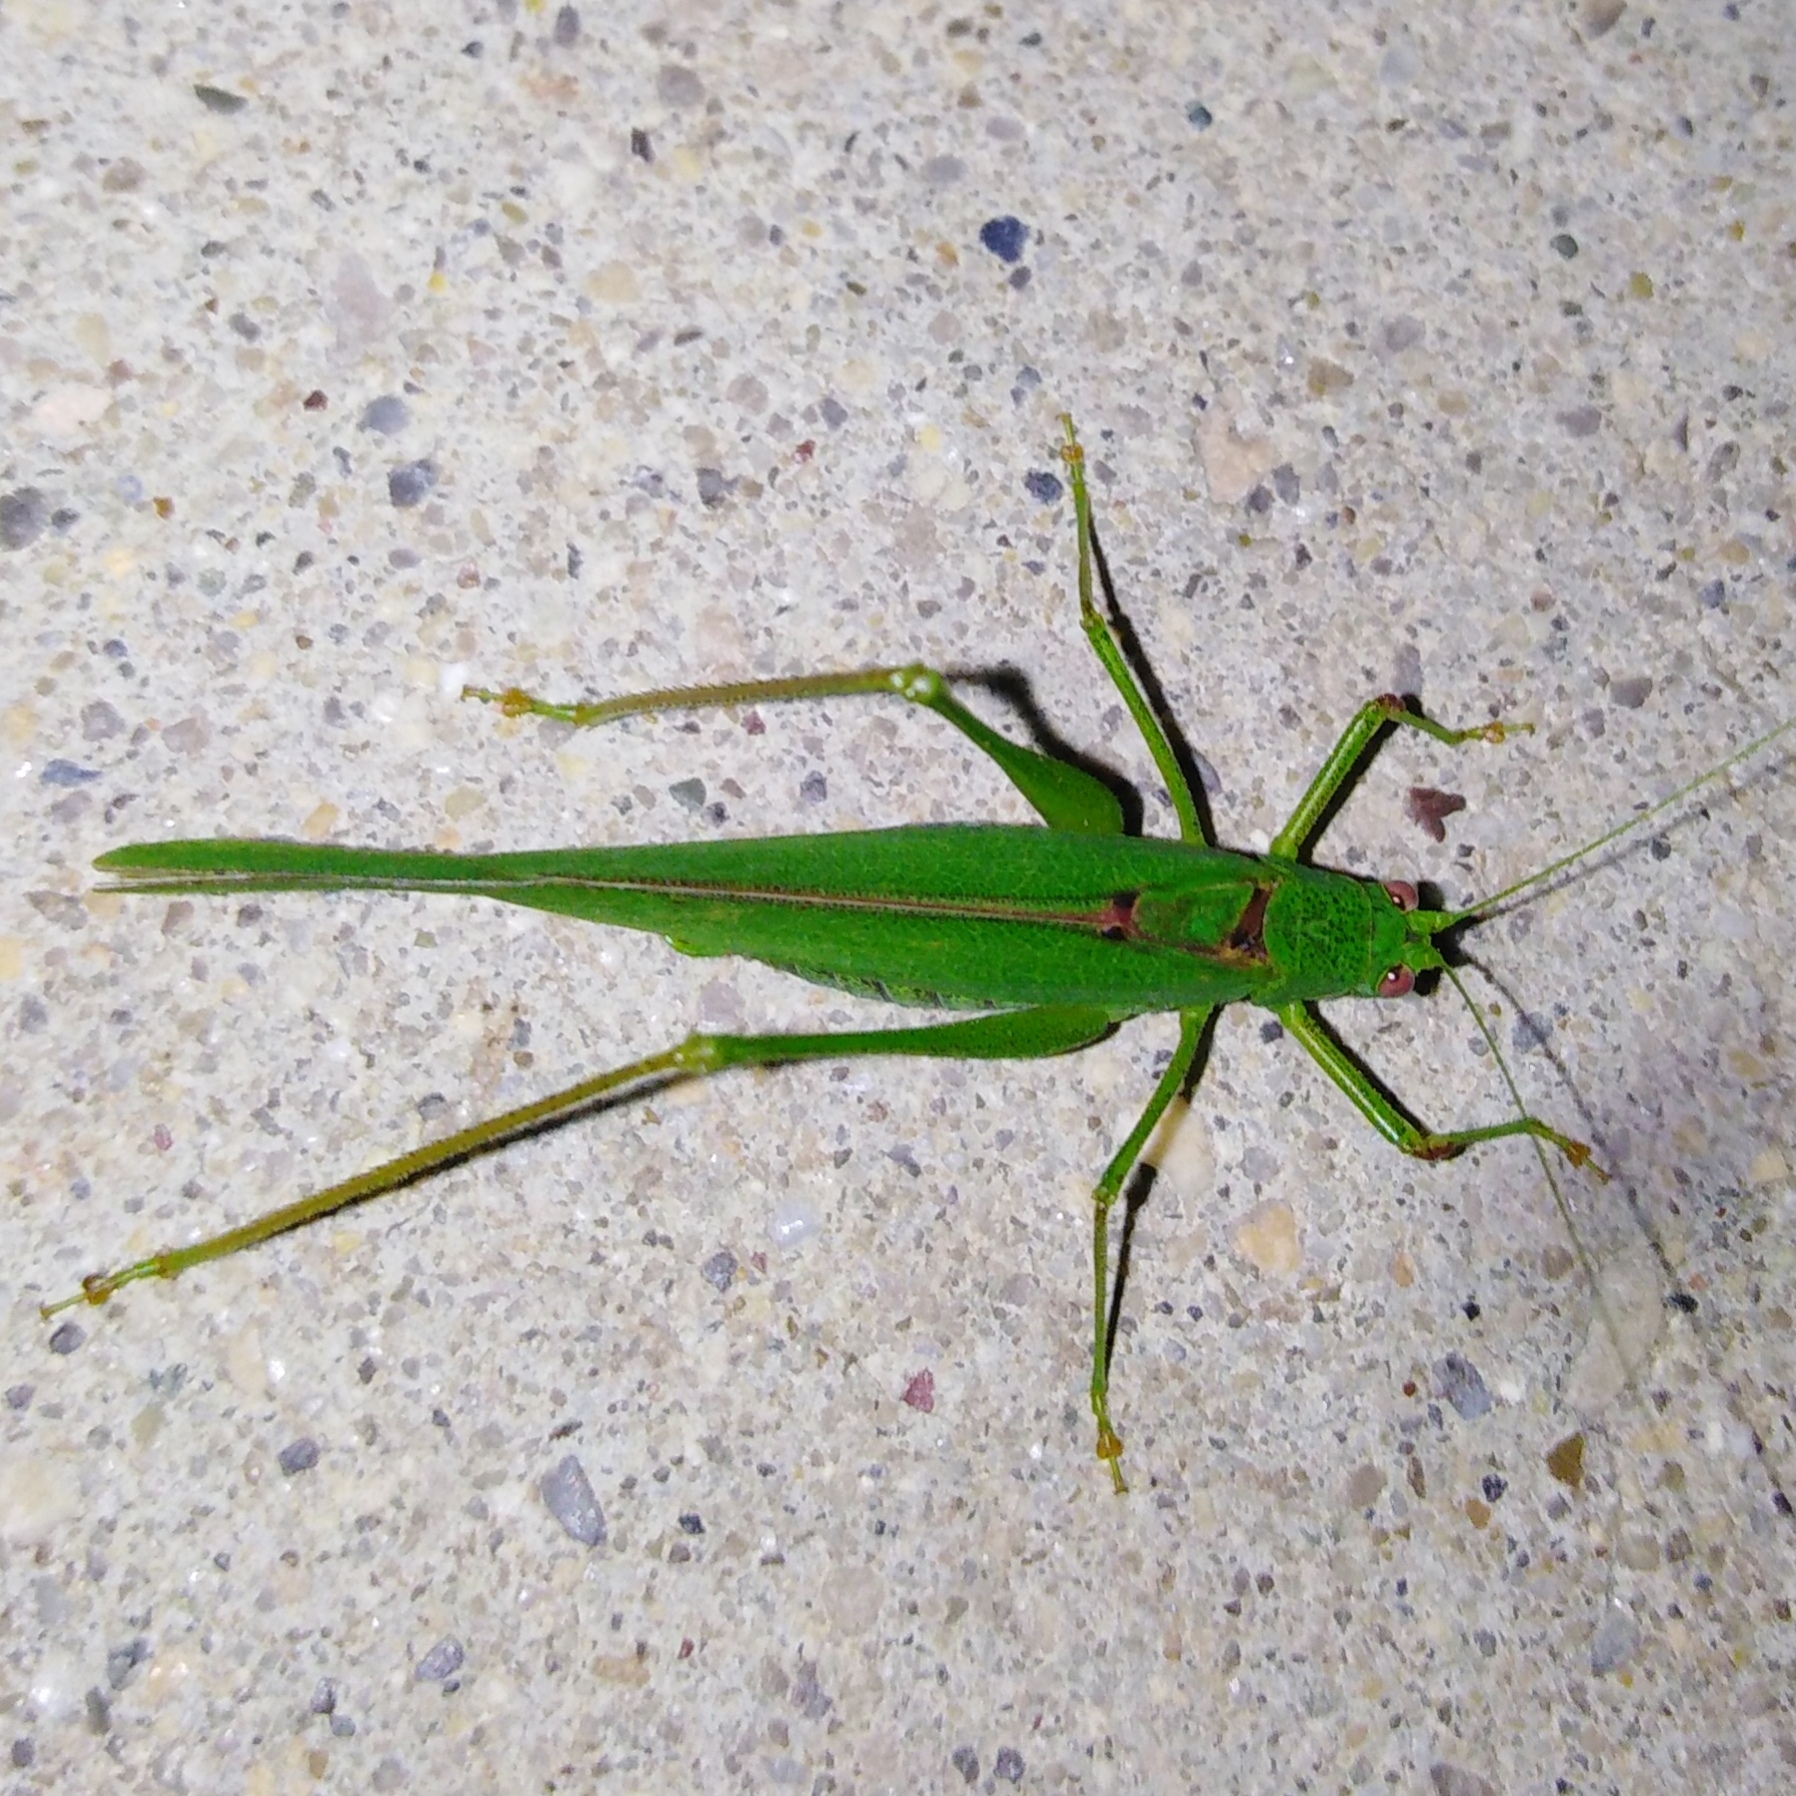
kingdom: Animalia
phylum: Arthropoda
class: Insecta
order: Orthoptera
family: Tettigoniidae
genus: Phaneroptera
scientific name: Phaneroptera nana
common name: Southern sickle bush-cricket
